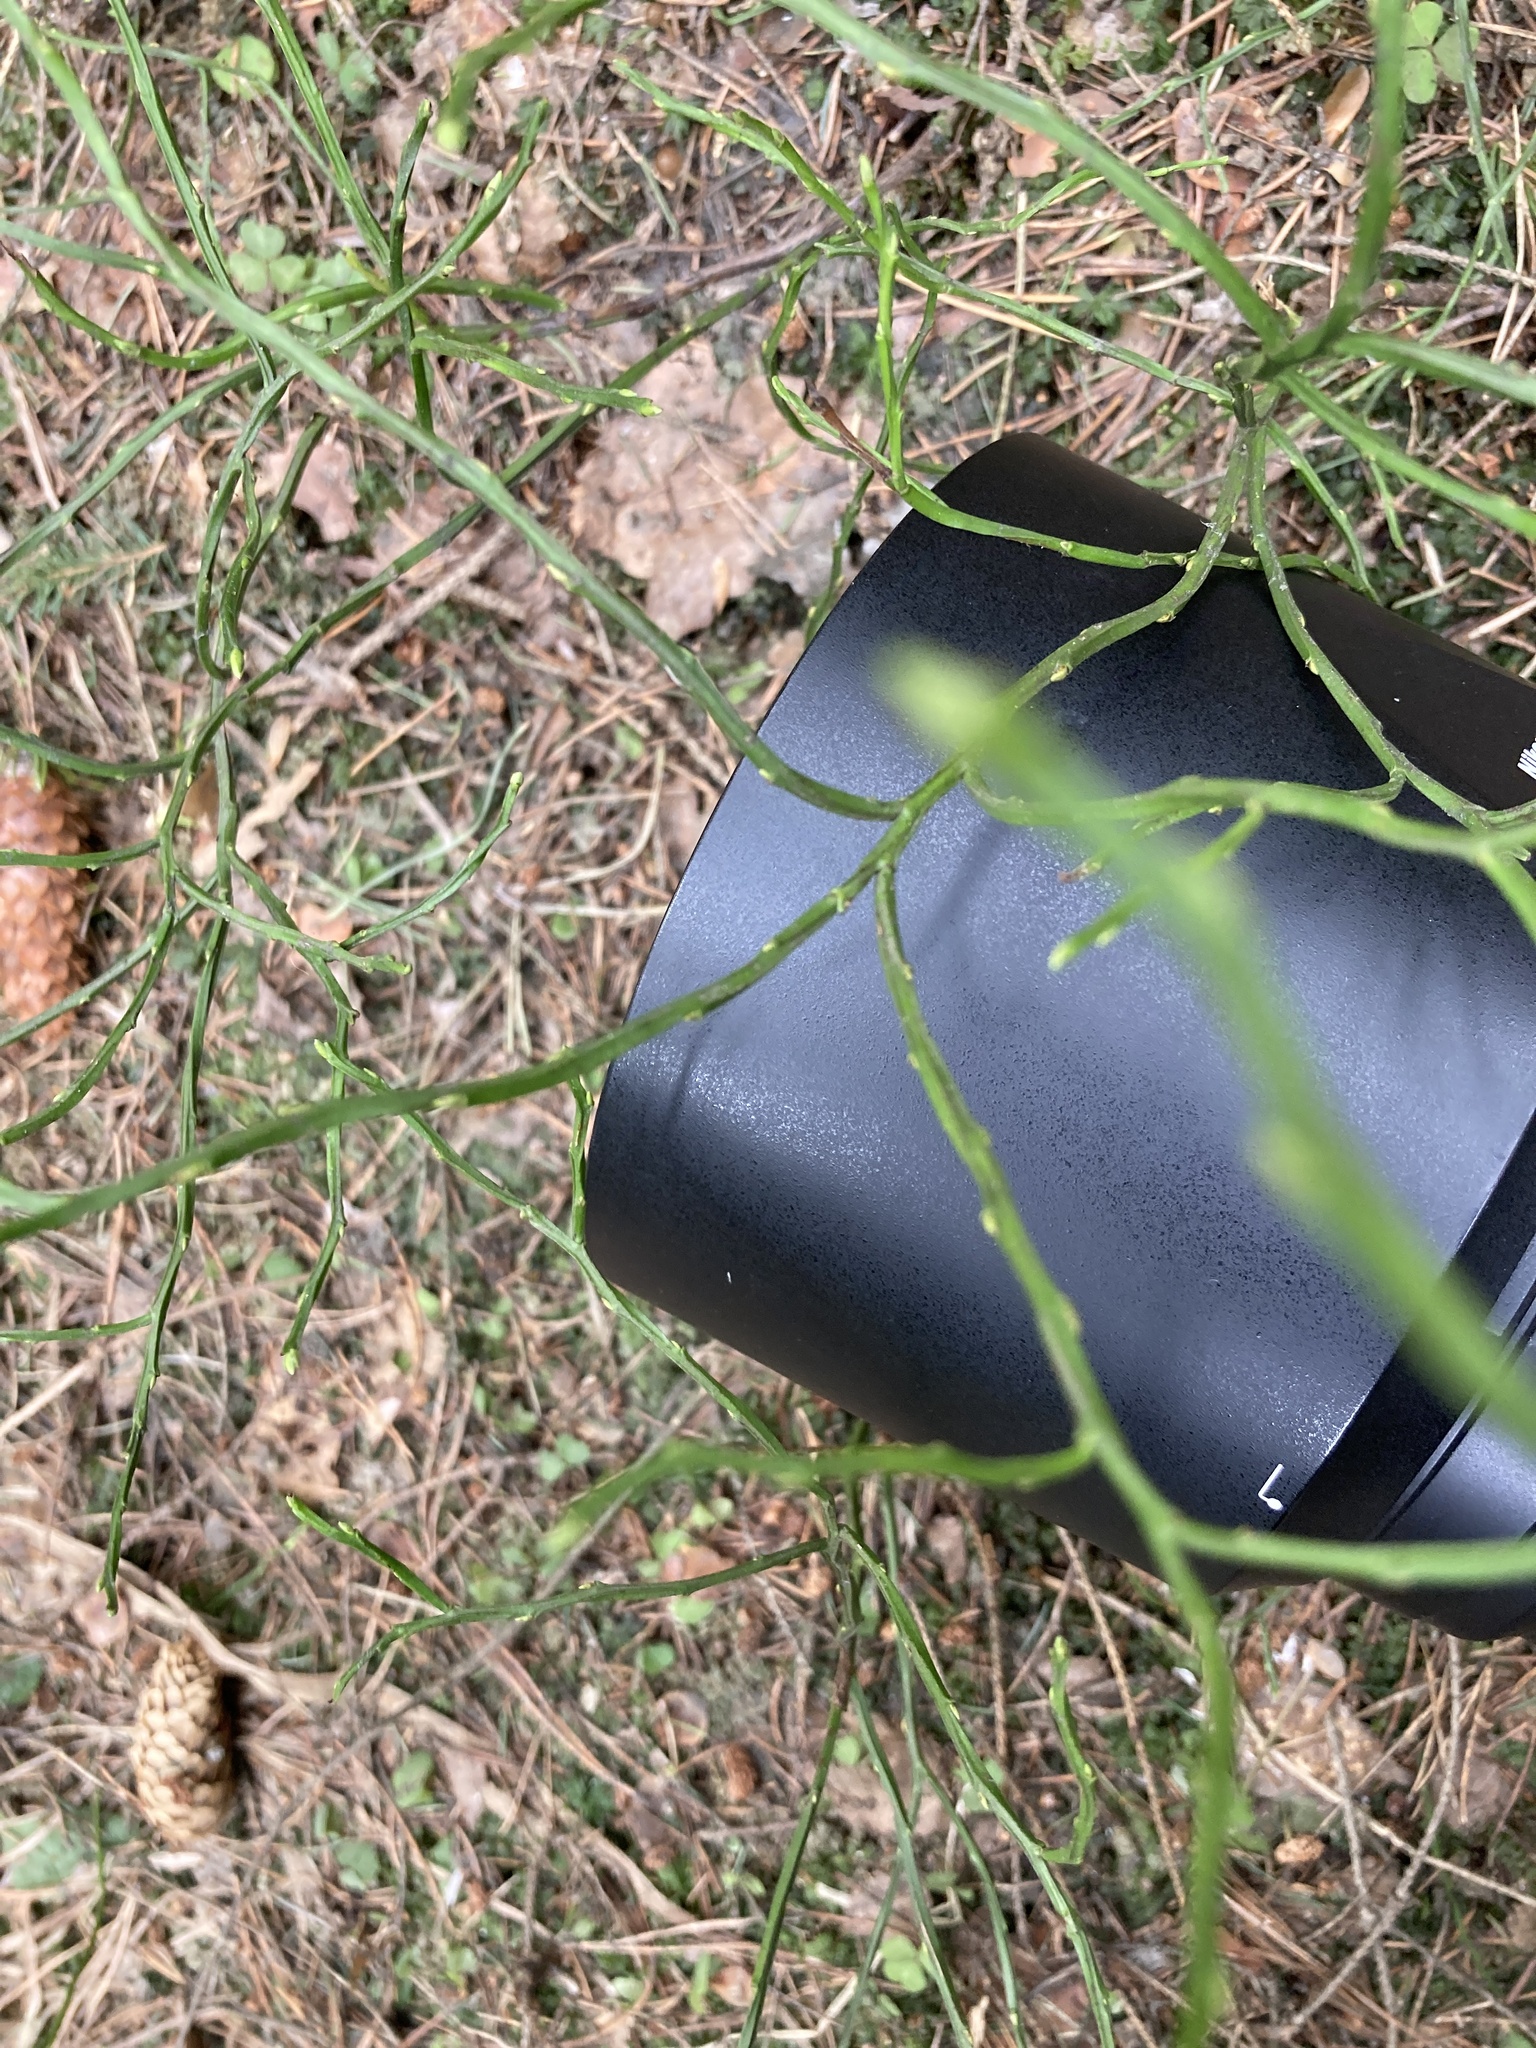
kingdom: Plantae
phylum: Tracheophyta
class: Magnoliopsida
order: Ericales
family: Ericaceae
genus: Vaccinium
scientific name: Vaccinium myrtillus
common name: Bilberry
